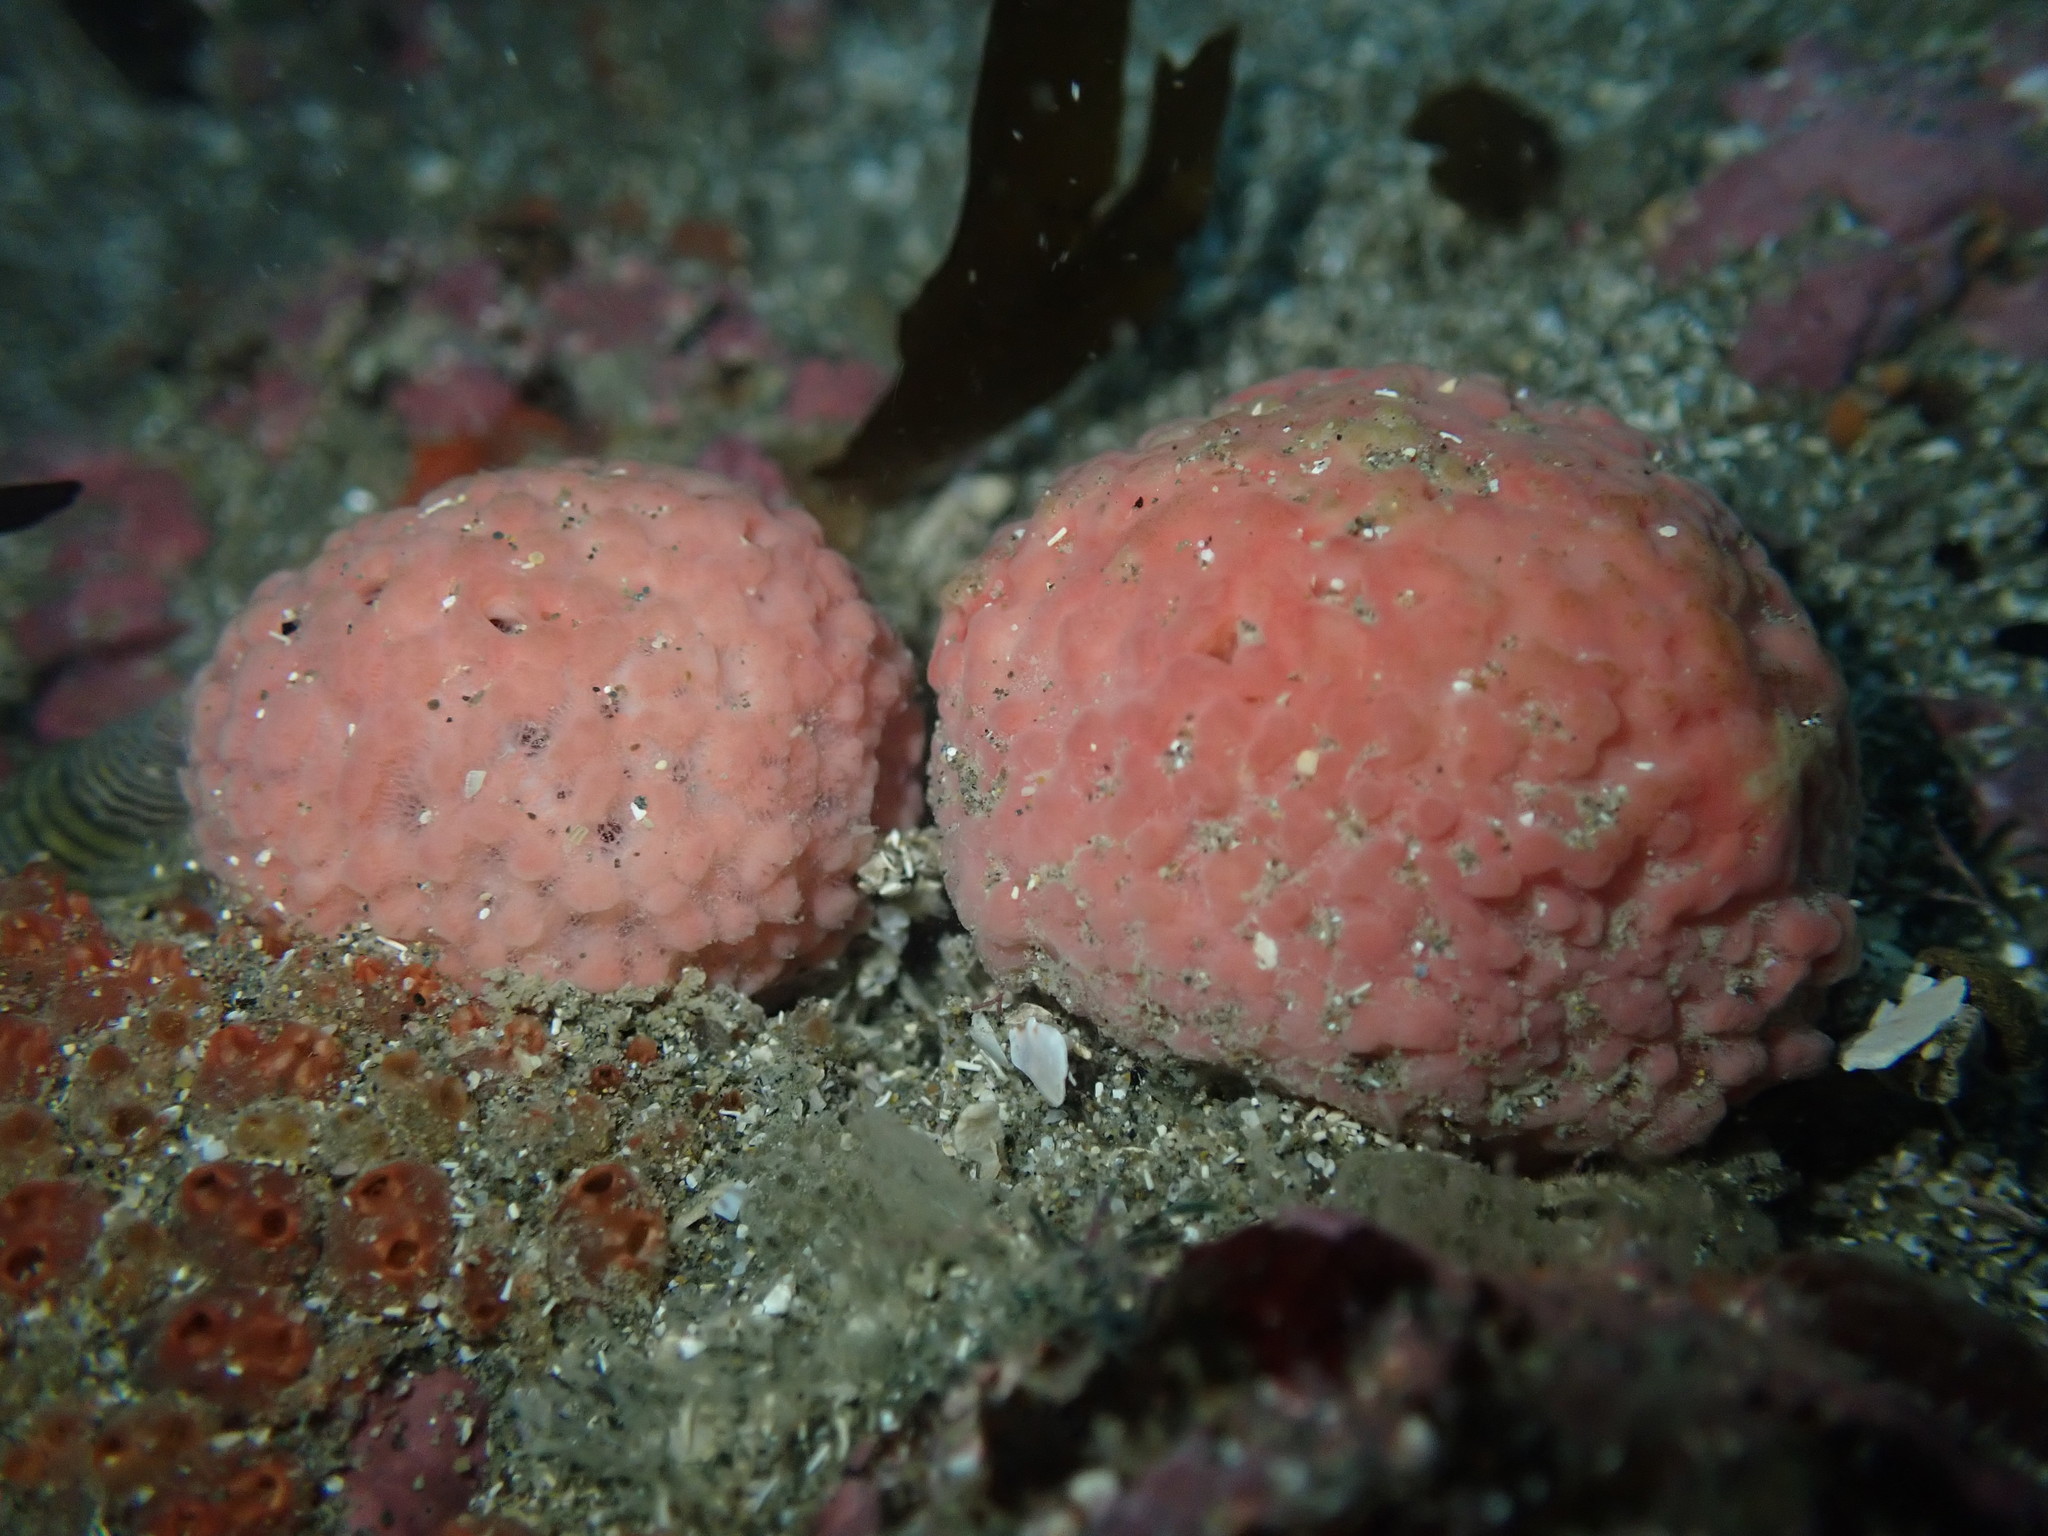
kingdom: Animalia
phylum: Porifera
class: Demospongiae
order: Tethyida
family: Tethyidae
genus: Tethya
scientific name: Tethya bergquistae
